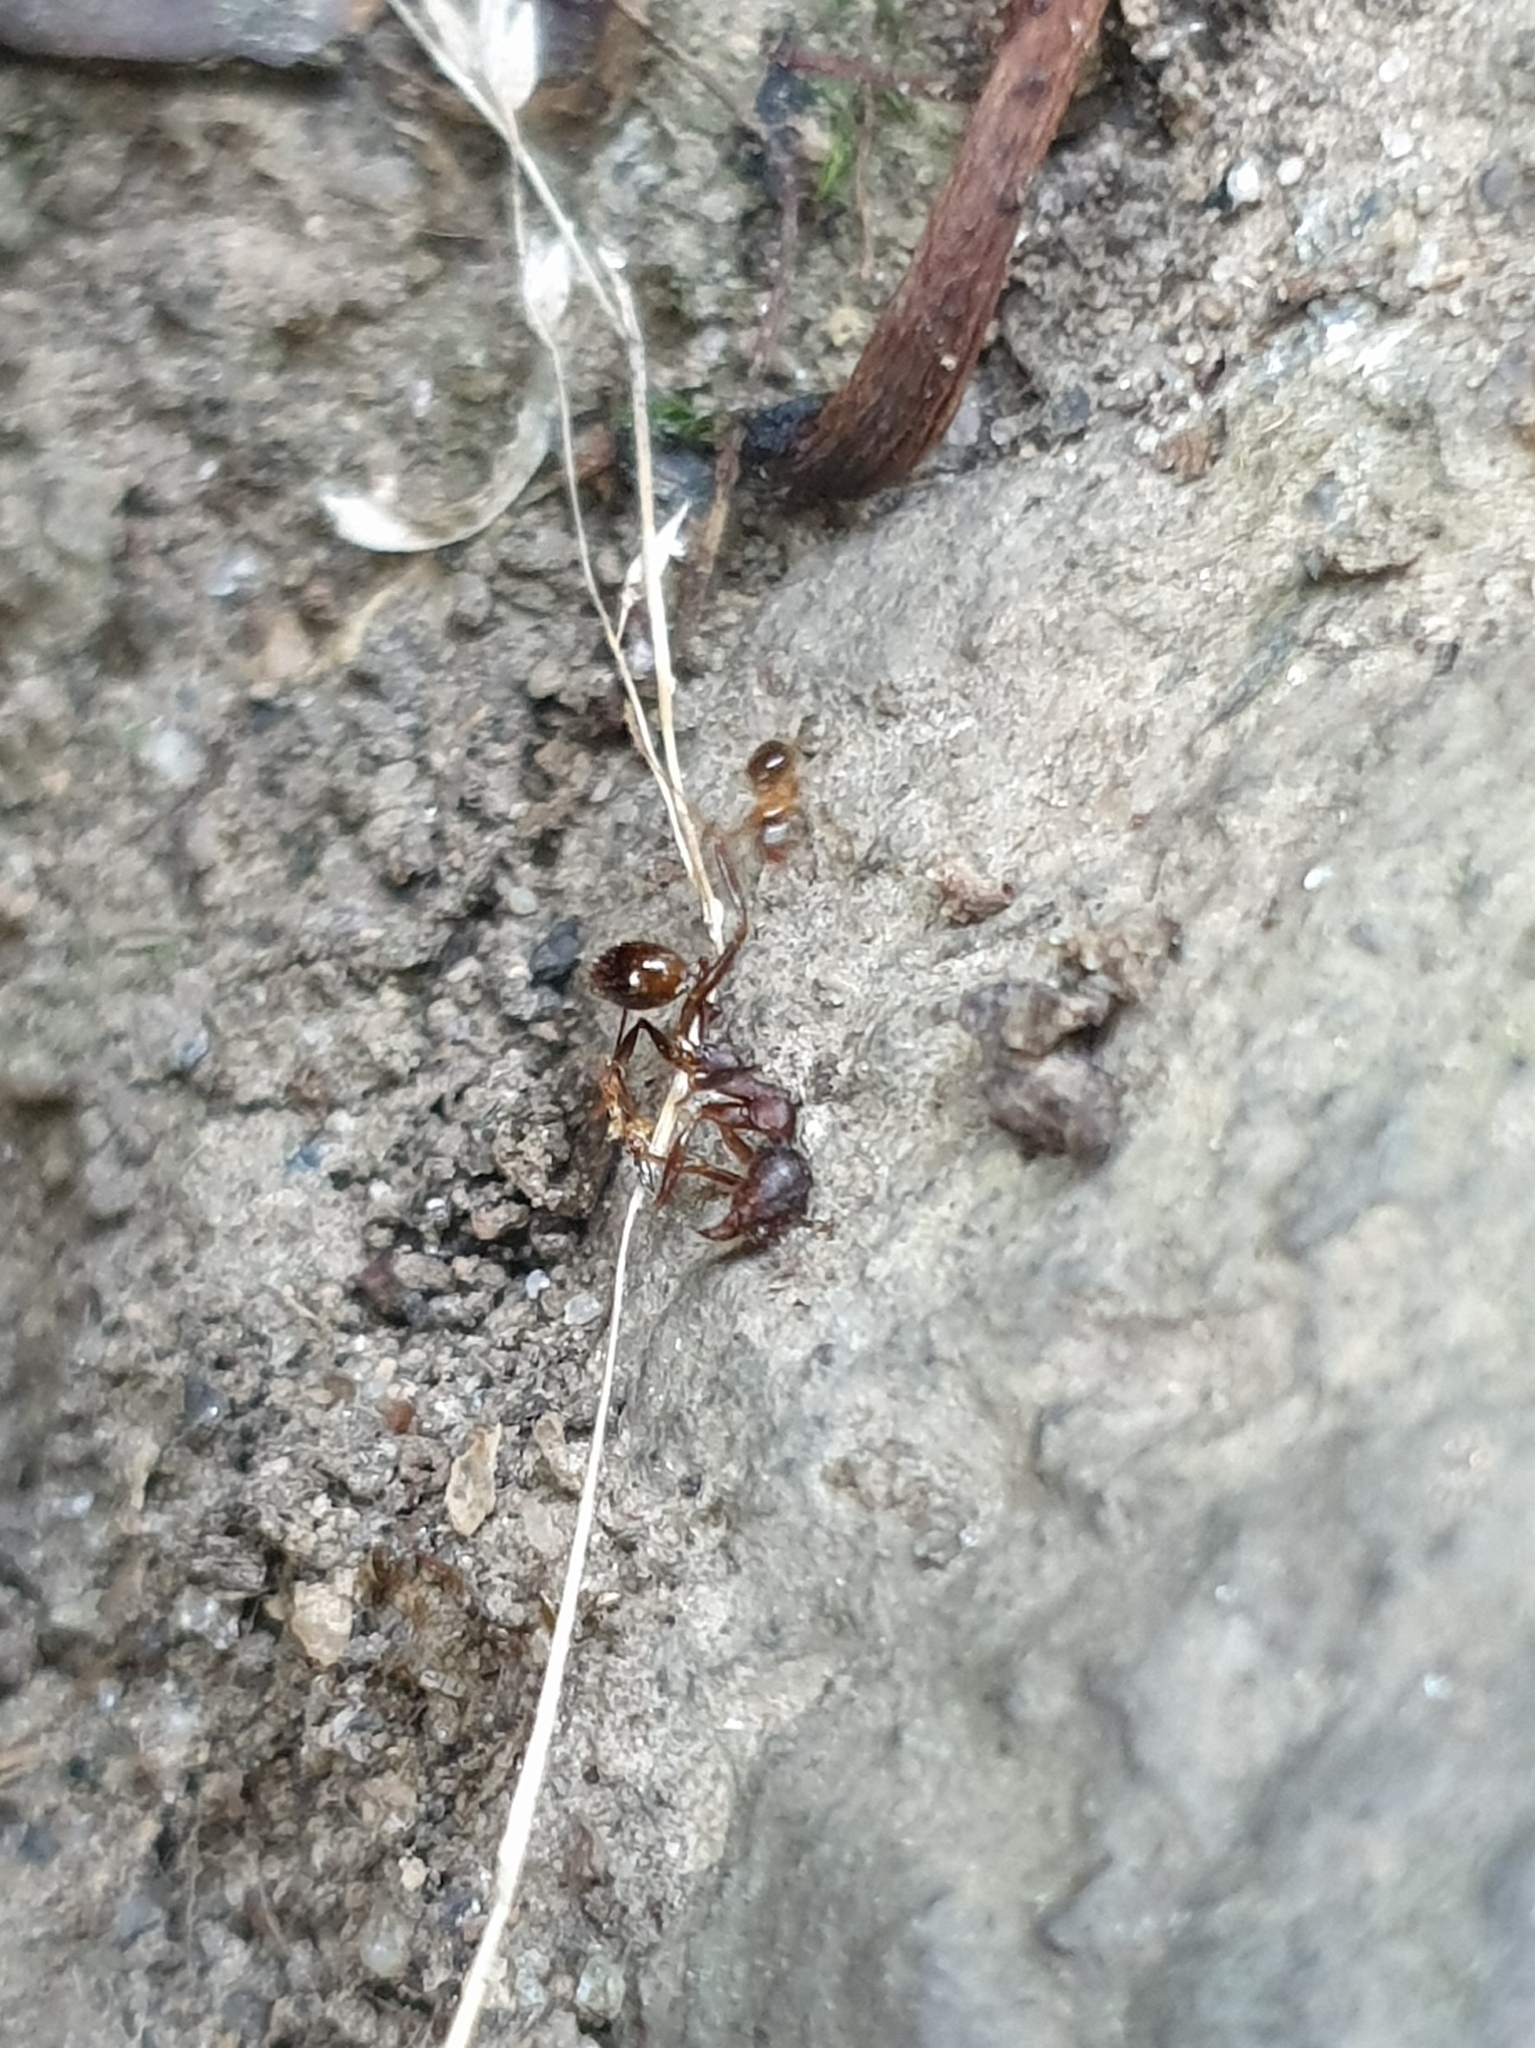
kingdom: Animalia
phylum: Arthropoda
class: Insecta
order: Hymenoptera
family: Formicidae
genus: Paratrechina
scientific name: Paratrechina flavipes
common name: Eastern asian formicine ant
